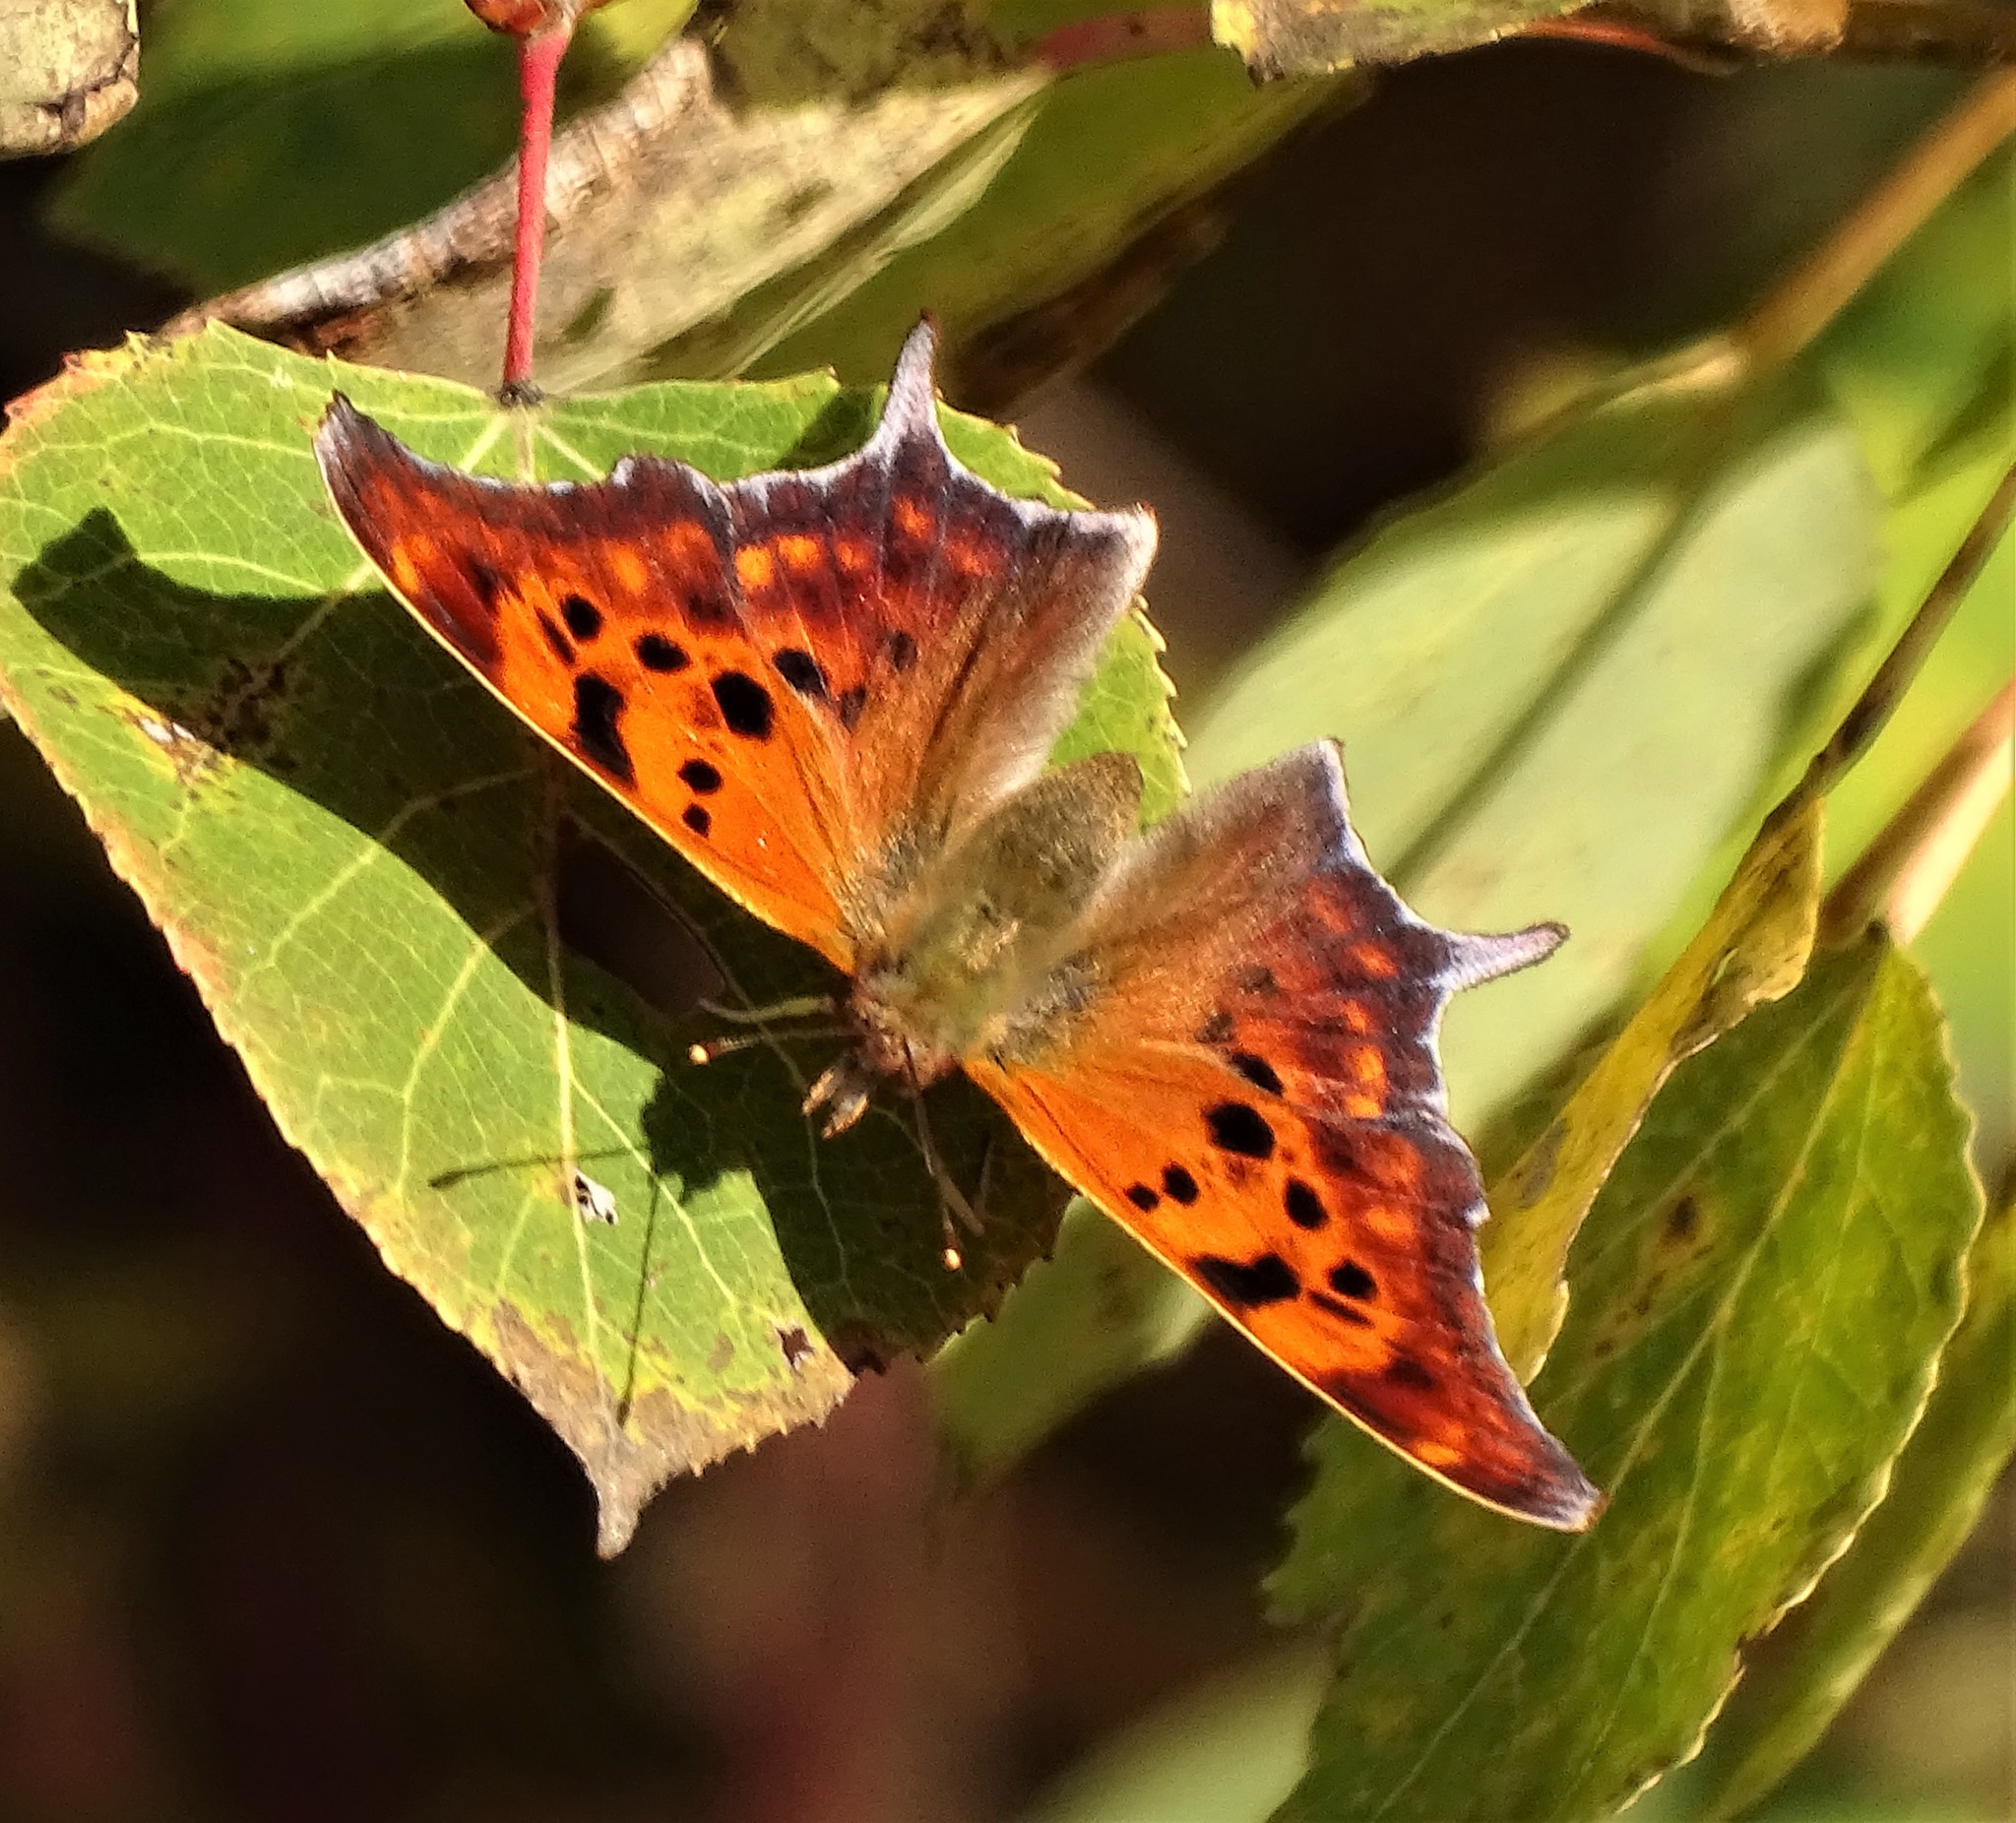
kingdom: Animalia
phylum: Arthropoda
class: Insecta
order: Lepidoptera
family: Nymphalidae
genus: Polygonia
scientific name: Polygonia interrogationis
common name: Question mark
